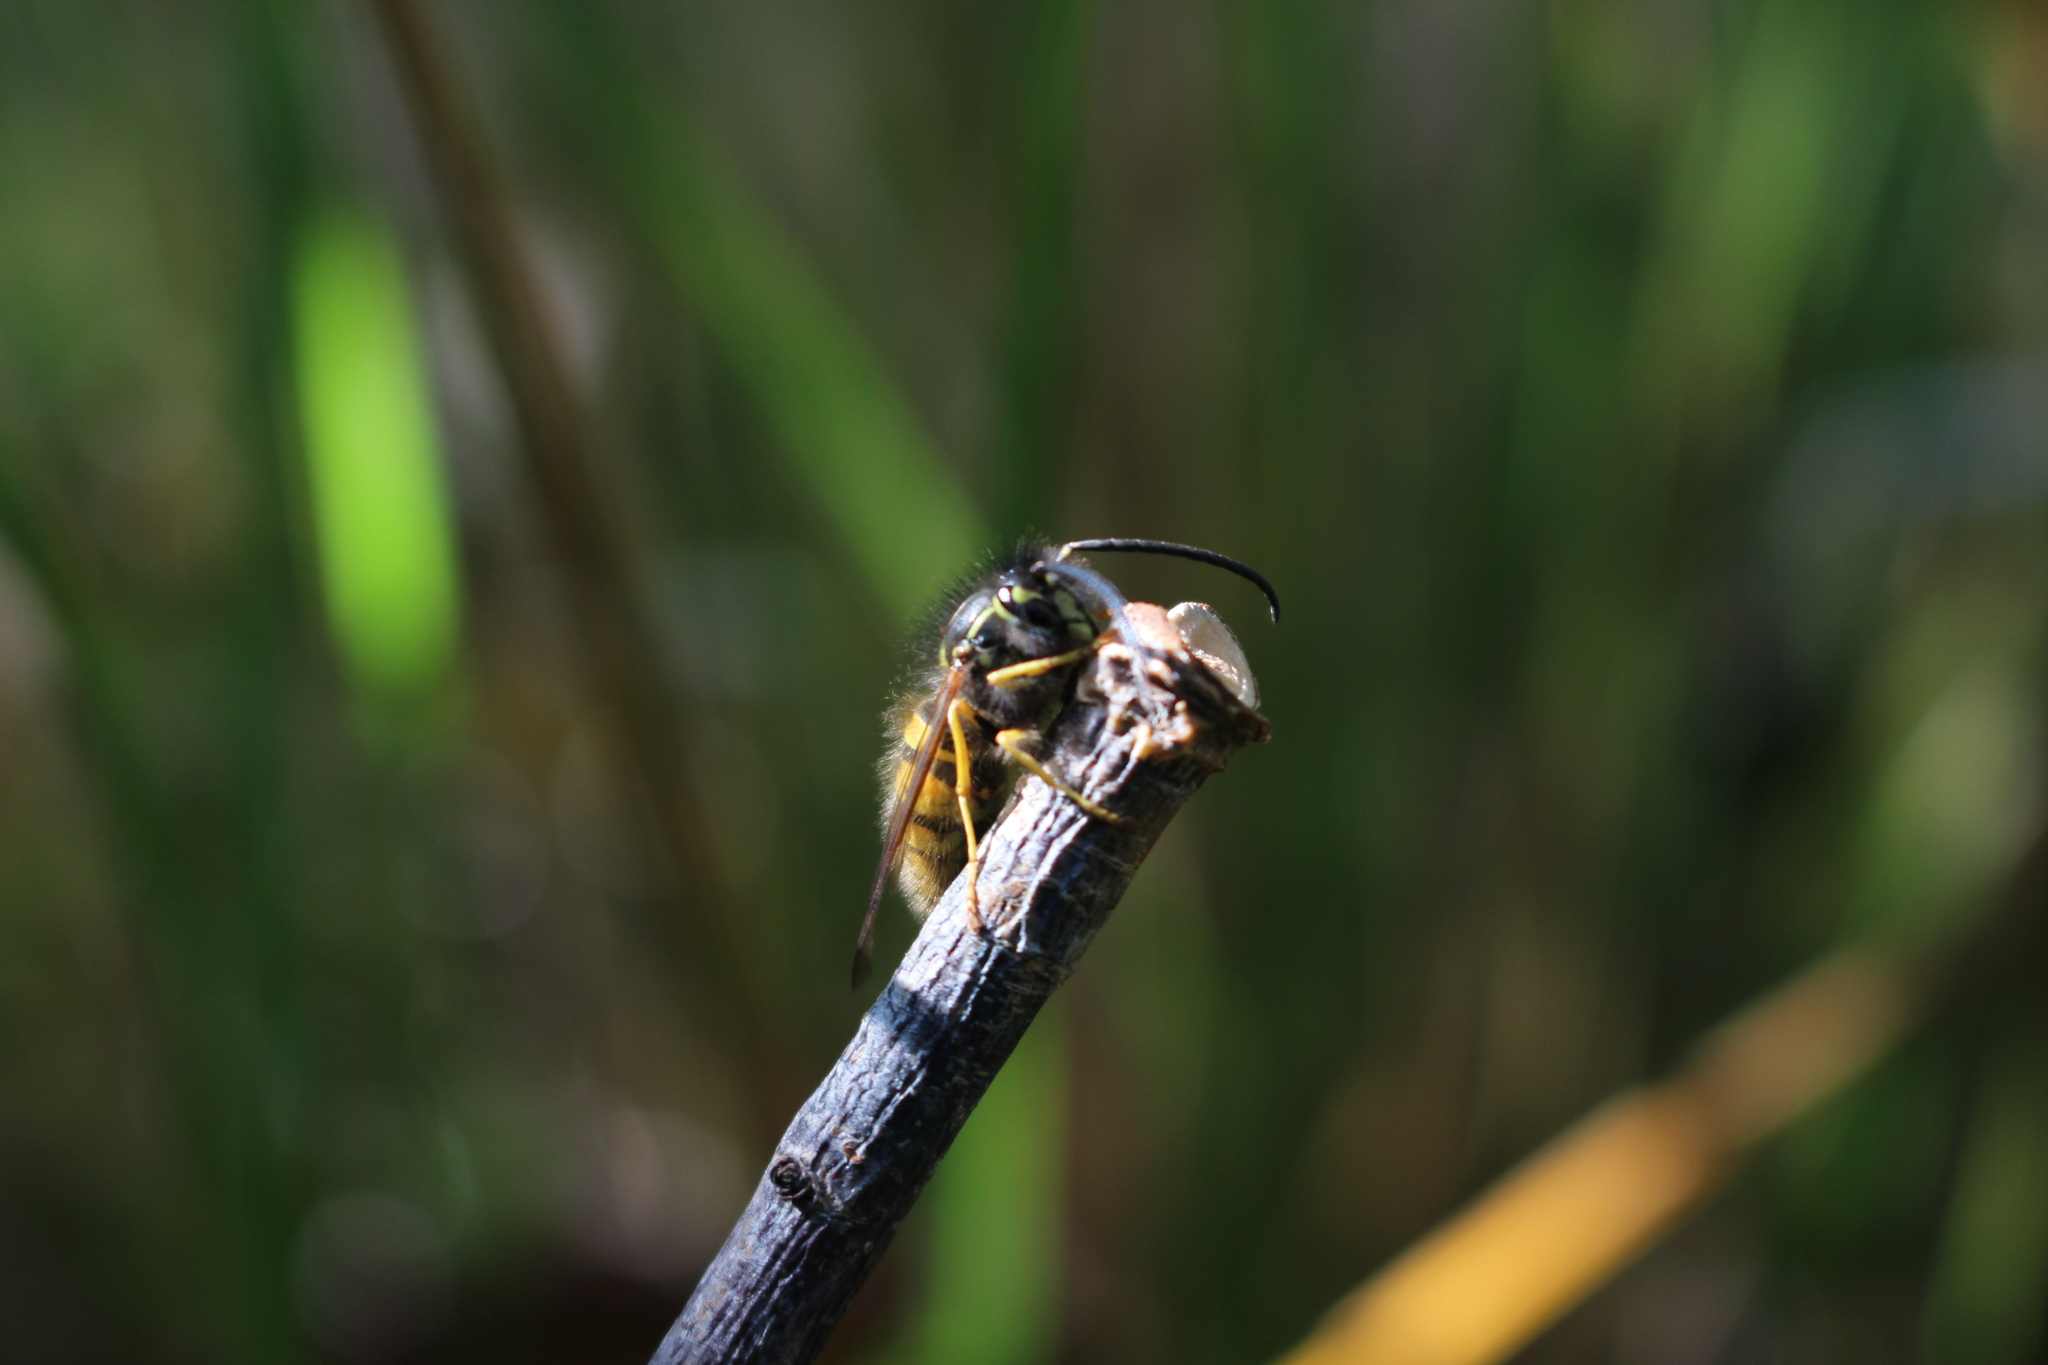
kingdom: Animalia
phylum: Arthropoda
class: Insecta
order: Hymenoptera
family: Vespidae
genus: Vespula
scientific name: Vespula vulgaris
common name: Common wasp
